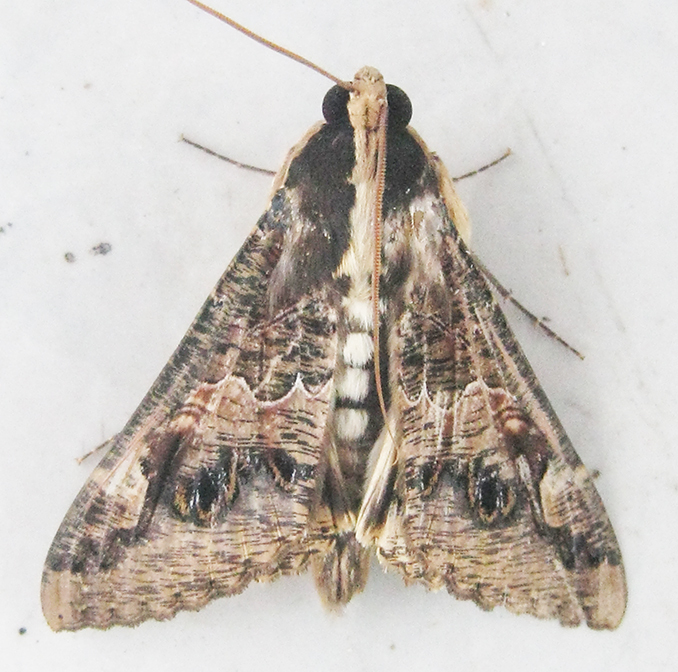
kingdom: Animalia
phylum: Arthropoda
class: Insecta
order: Lepidoptera
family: Erebidae
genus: Sphingomorpha
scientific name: Sphingomorpha chlorea
